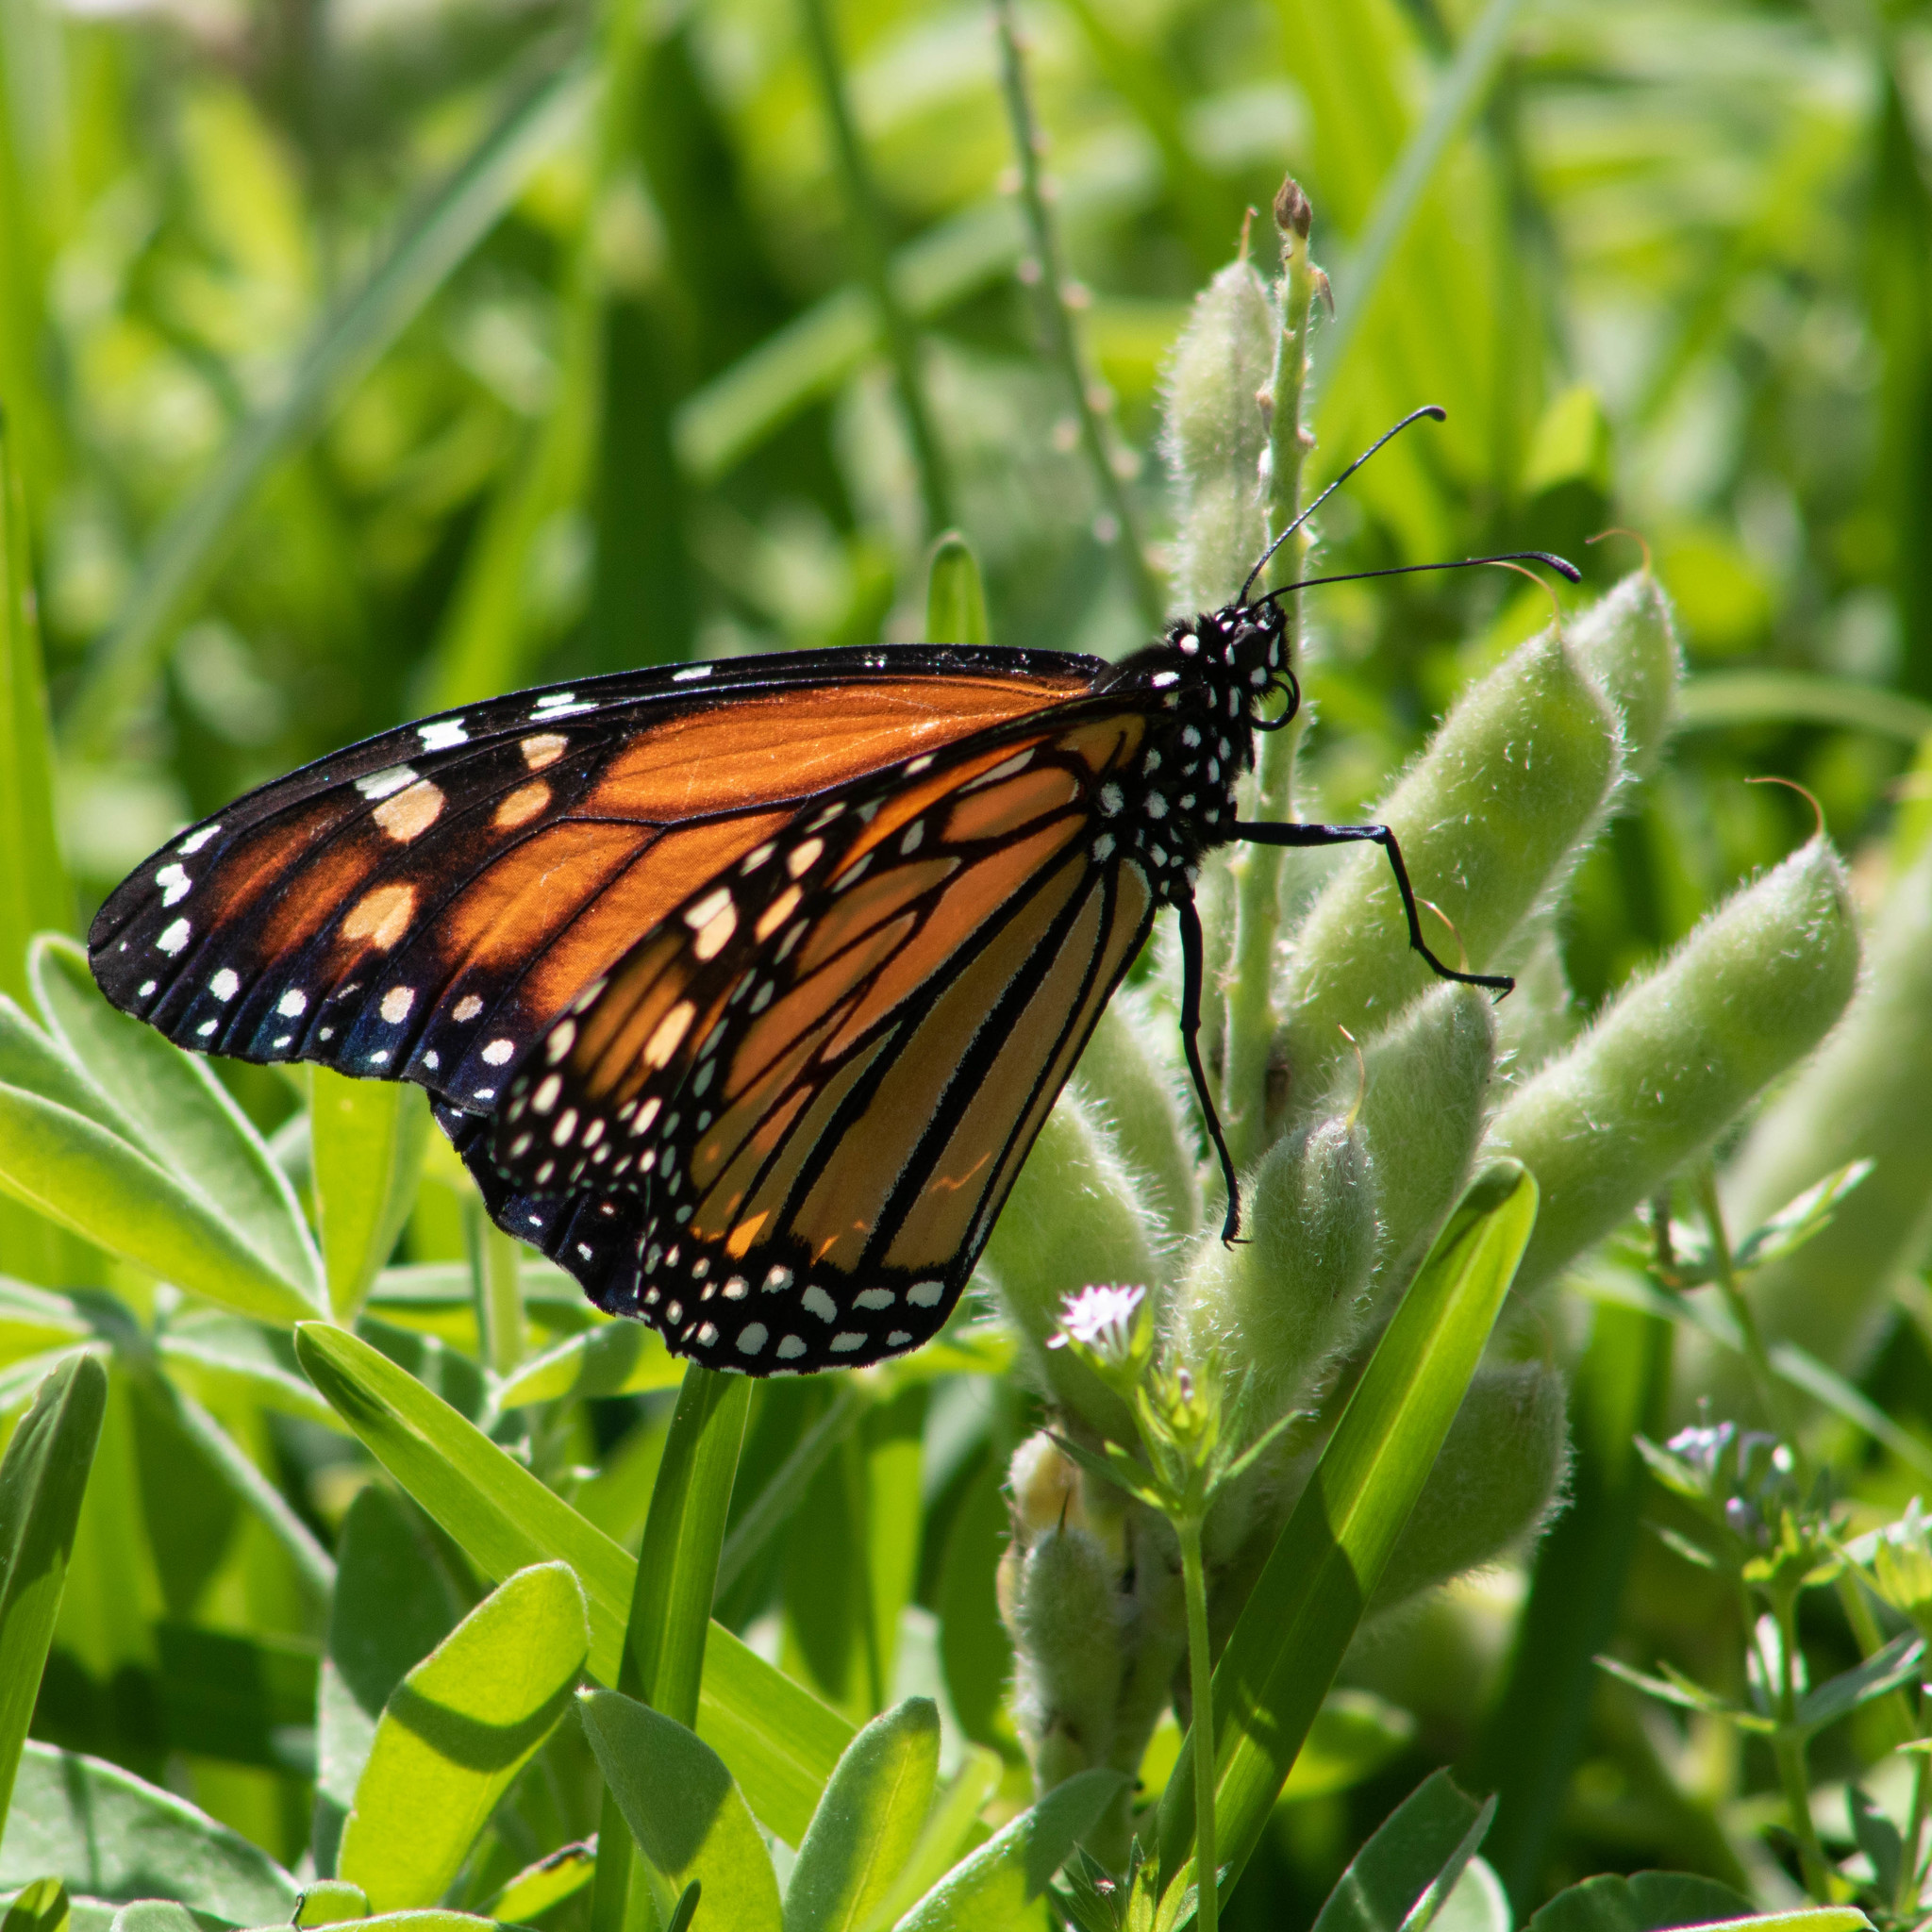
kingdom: Animalia
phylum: Arthropoda
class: Insecta
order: Lepidoptera
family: Nymphalidae
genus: Danaus
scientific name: Danaus plexippus
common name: Monarch
